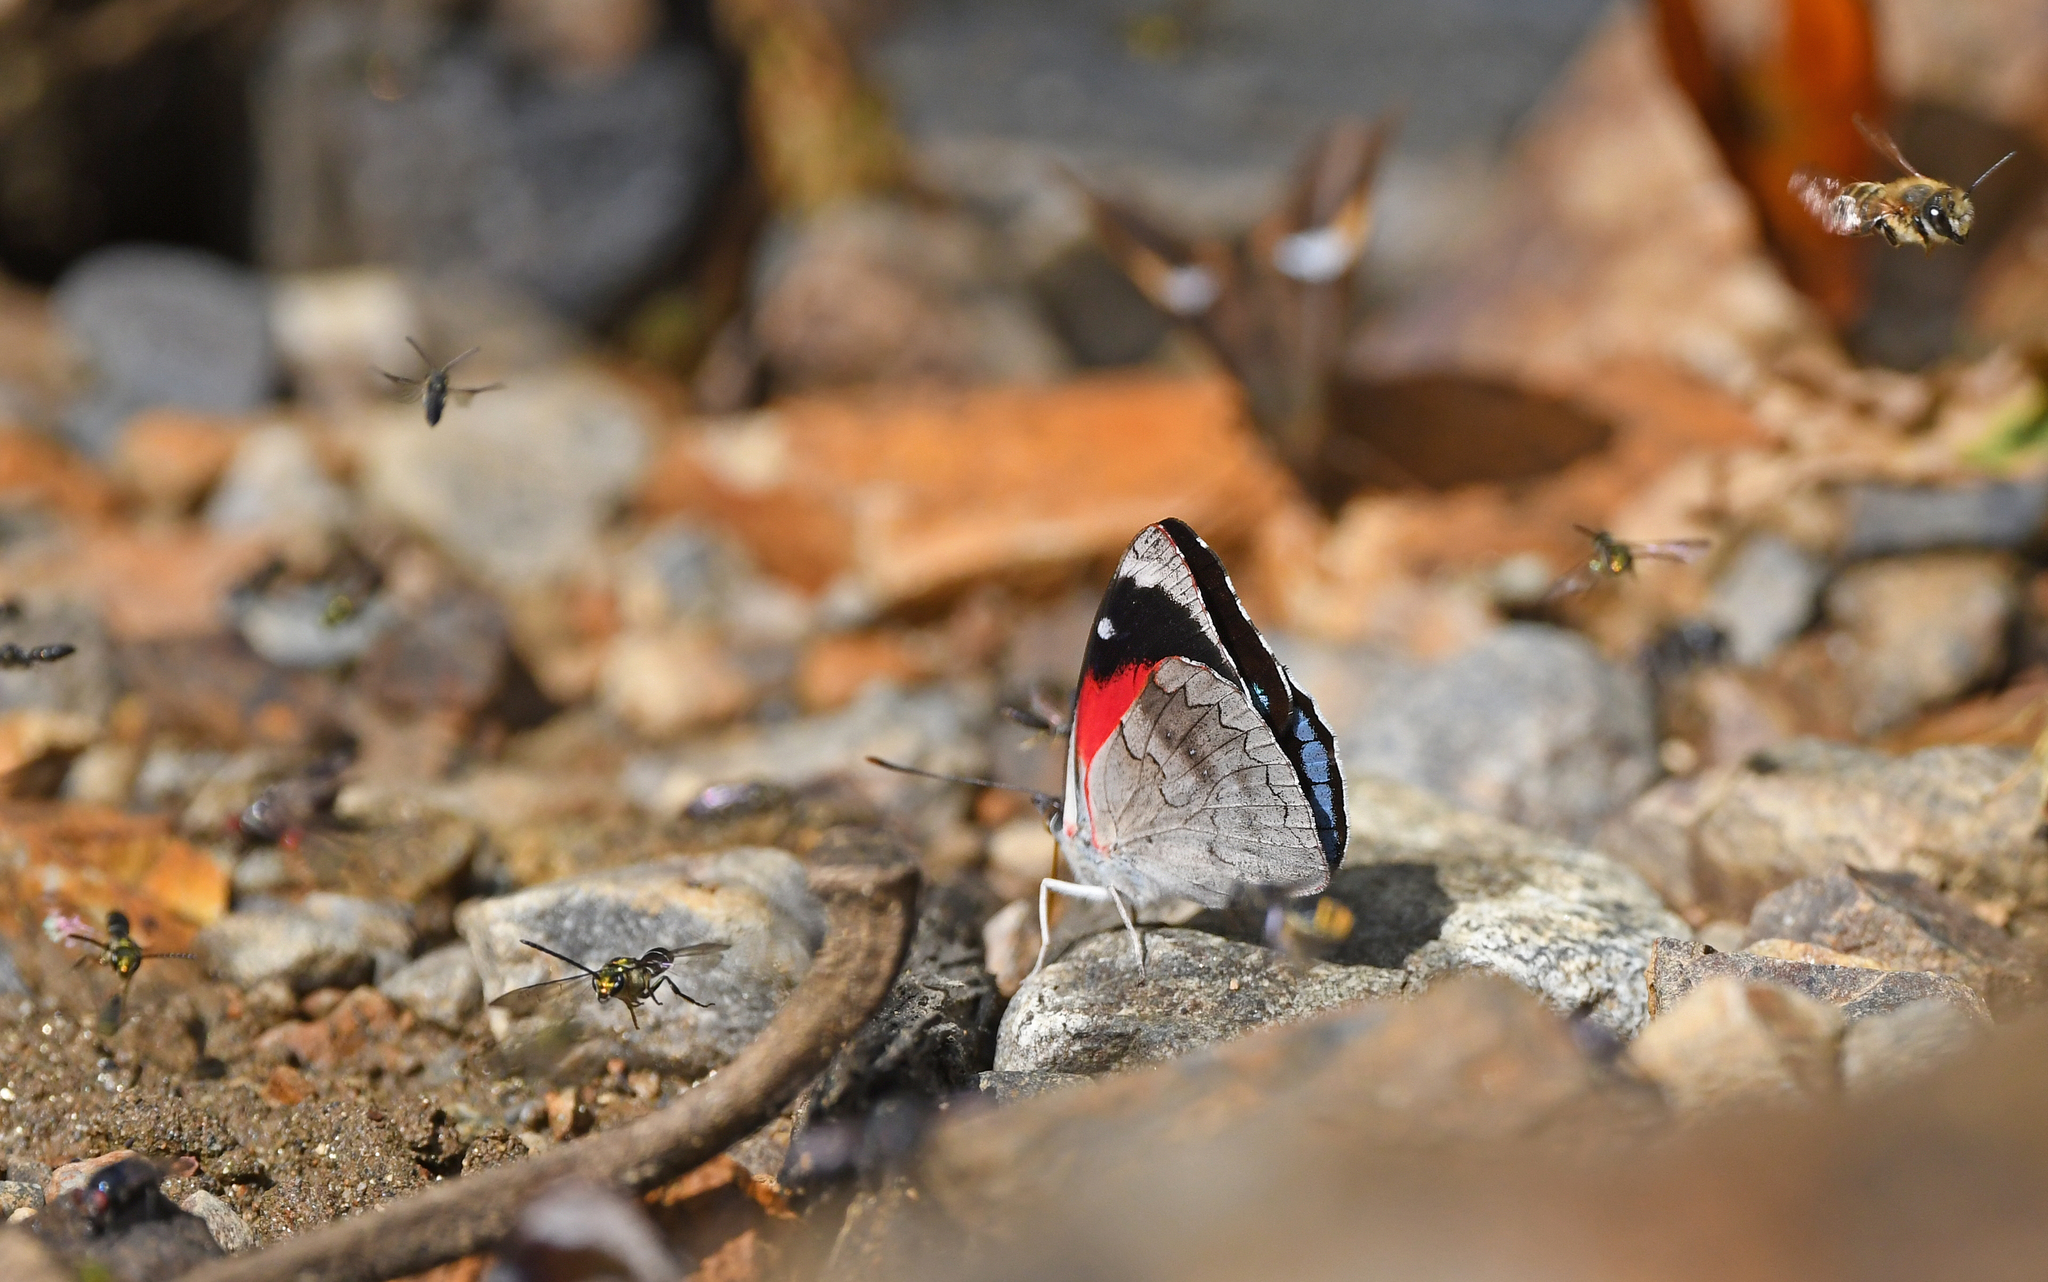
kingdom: Animalia
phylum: Arthropoda
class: Insecta
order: Lepidoptera
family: Nymphalidae
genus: Perisama
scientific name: Perisama lebasii
